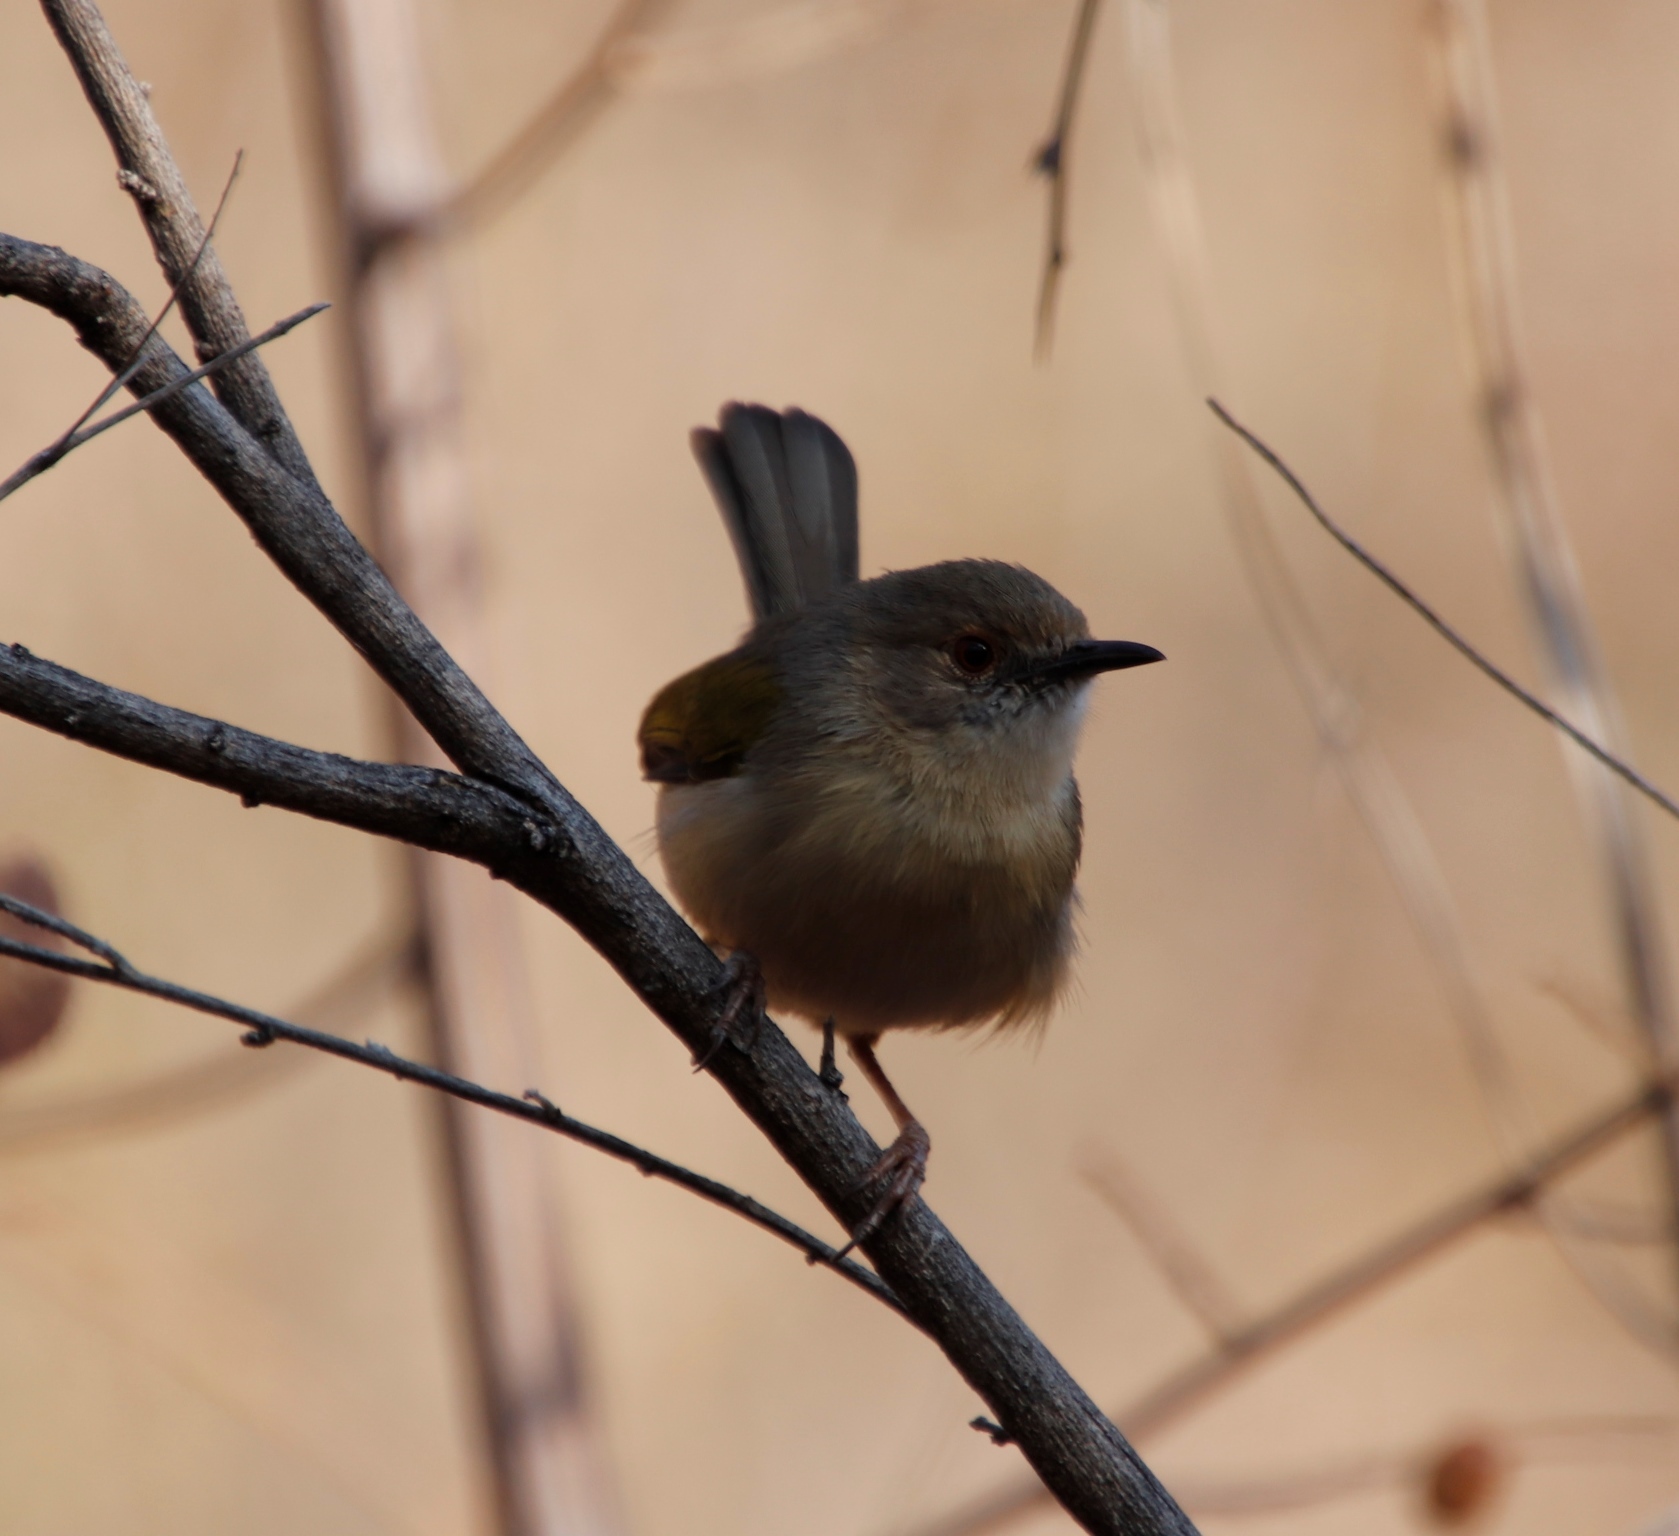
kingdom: Animalia
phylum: Chordata
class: Aves
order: Passeriformes
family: Cisticolidae
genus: Camaroptera
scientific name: Camaroptera brachyura
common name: Green-backed camaroptera
